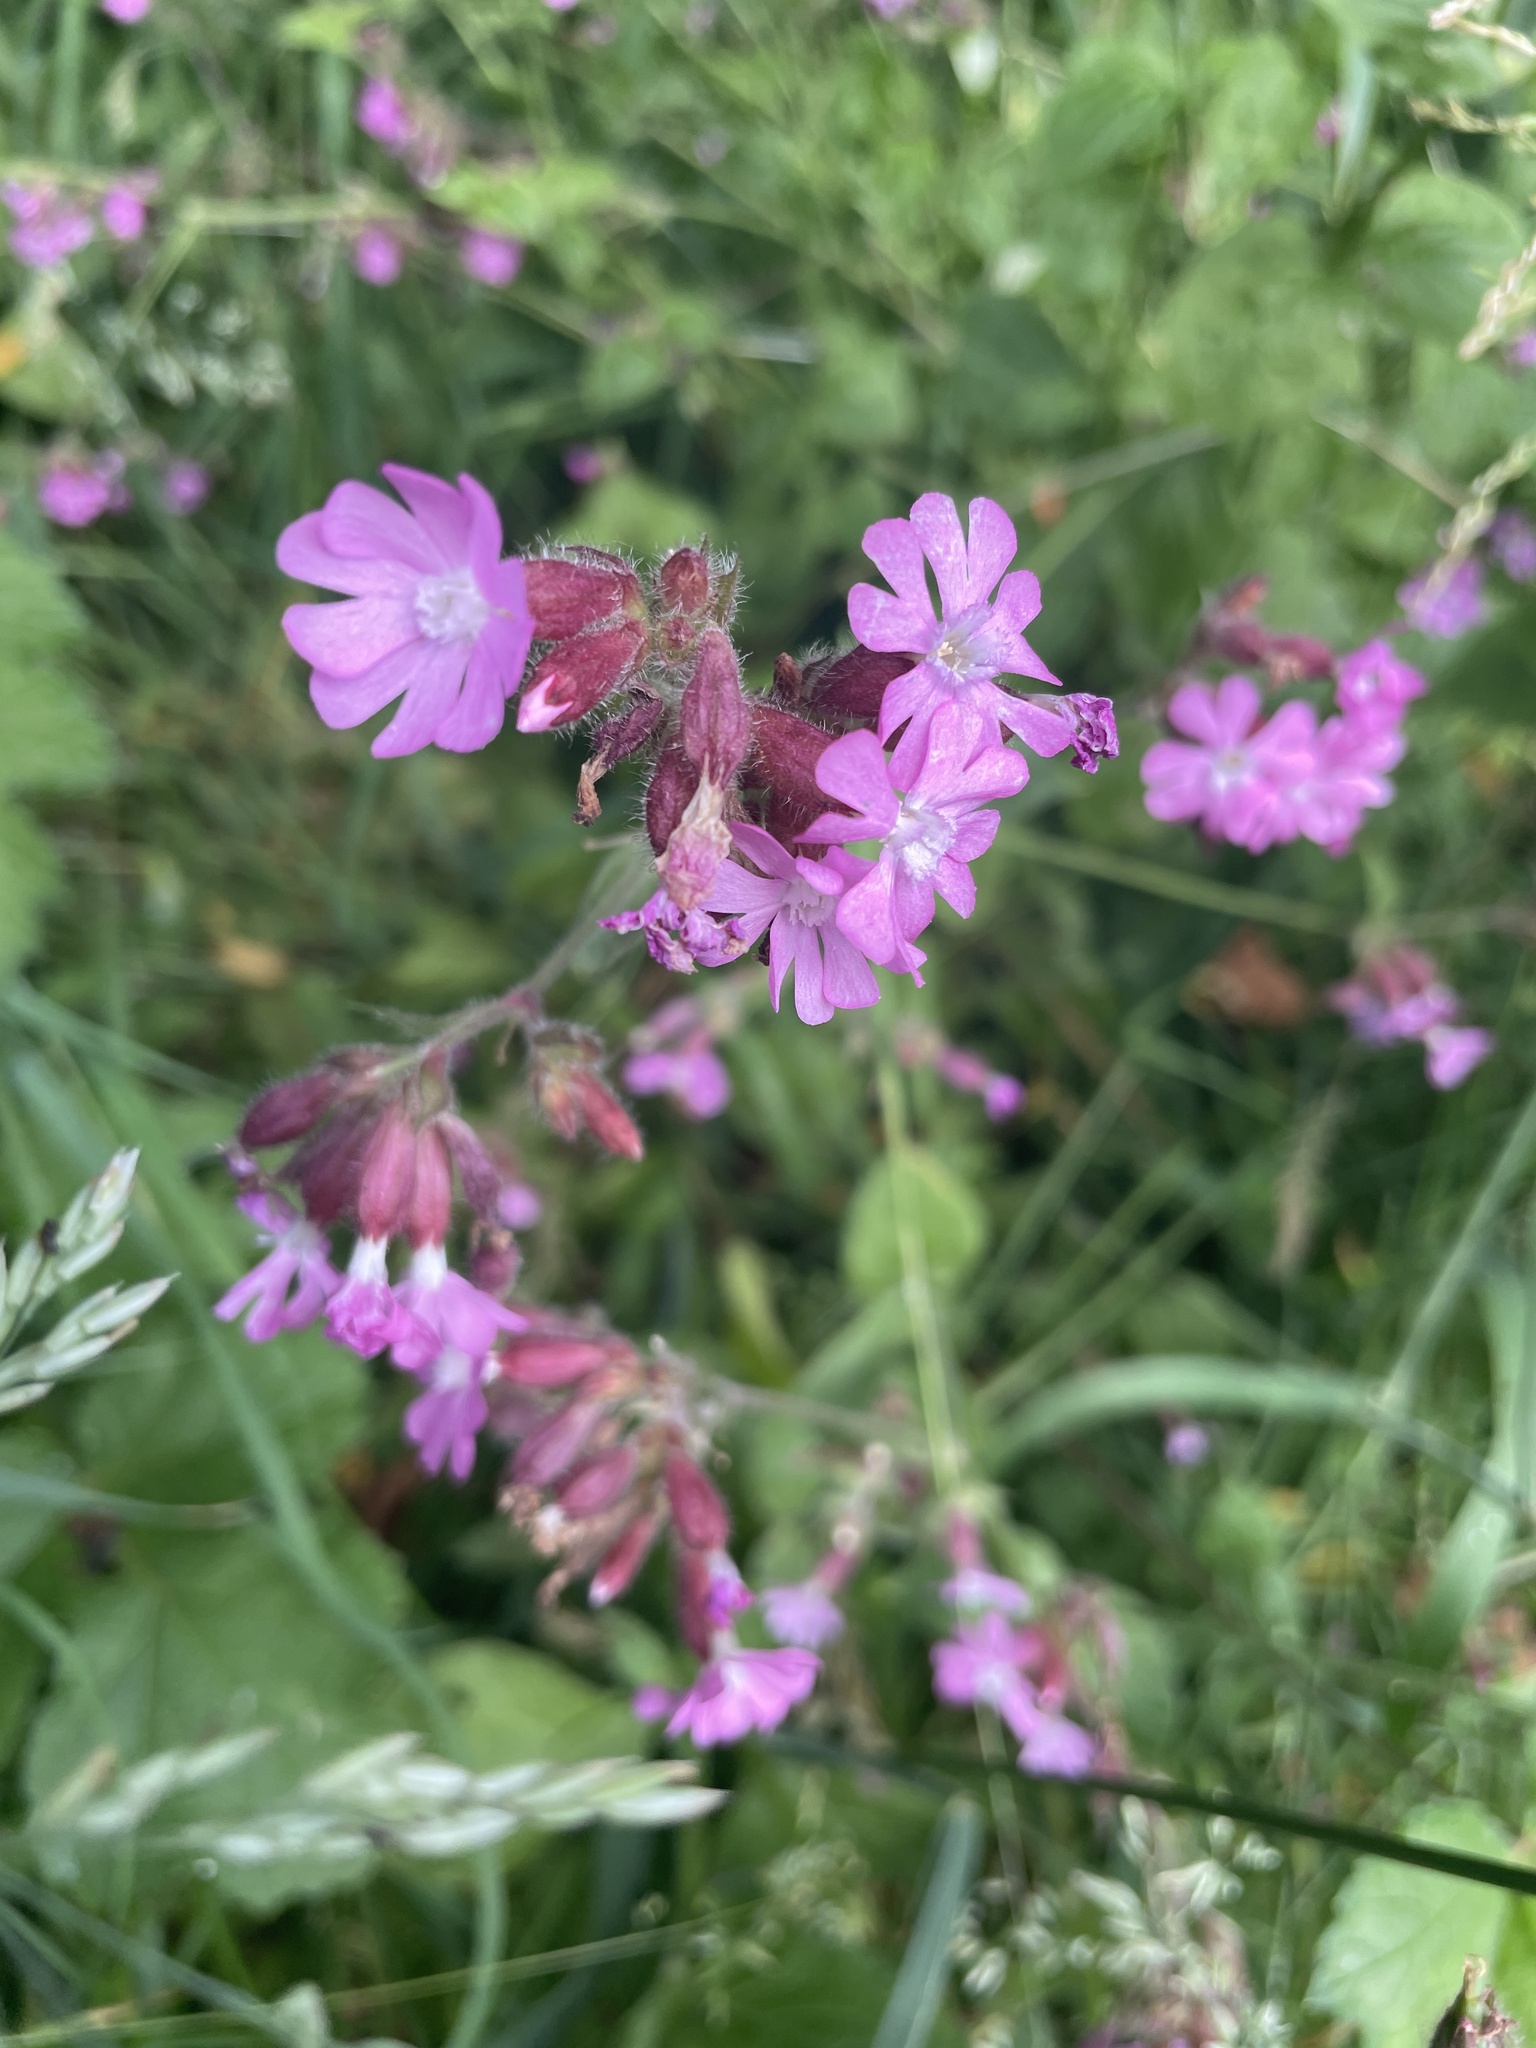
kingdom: Plantae
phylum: Tracheophyta
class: Magnoliopsida
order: Caryophyllales
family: Caryophyllaceae
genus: Silene
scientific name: Silene dioica
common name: Red campion
